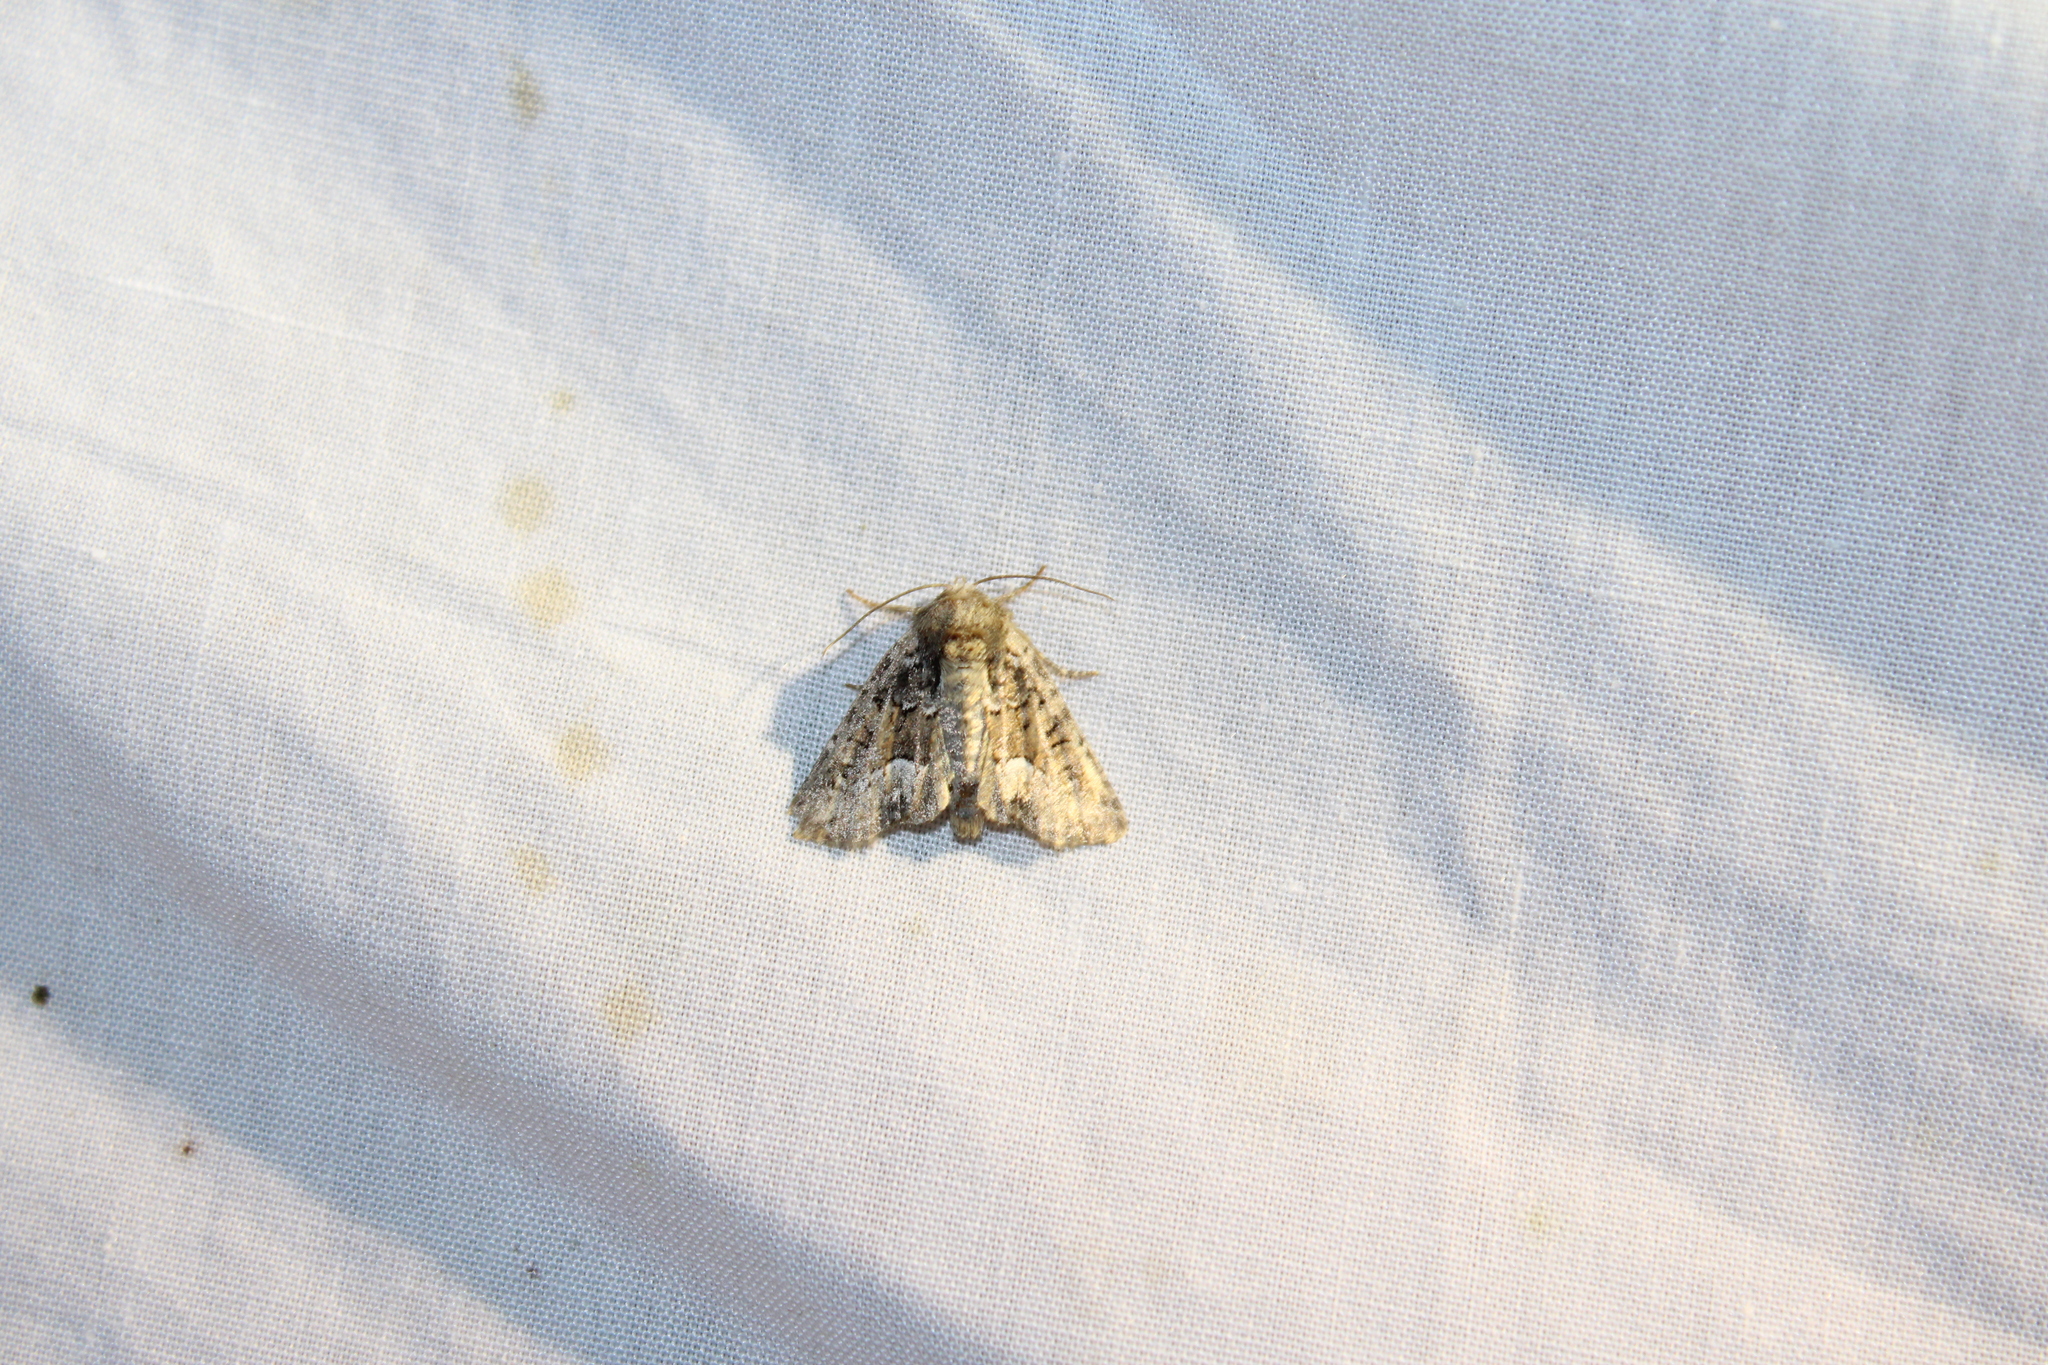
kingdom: Animalia
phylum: Arthropoda
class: Insecta
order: Lepidoptera
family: Noctuidae
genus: Oligia
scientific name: Oligia strigilis
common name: Marbled minor
